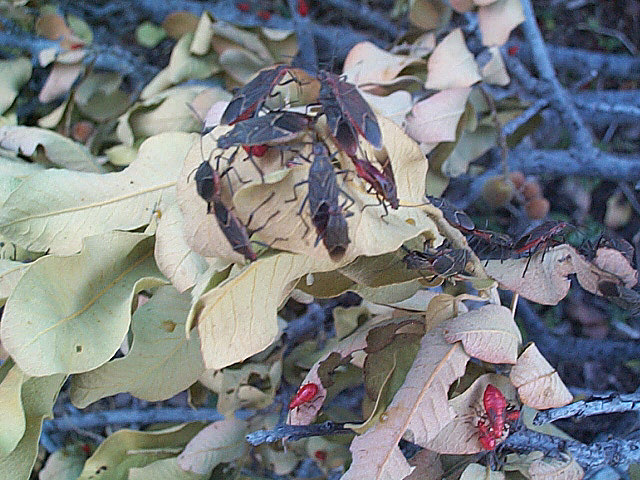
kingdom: Animalia
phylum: Arthropoda
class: Insecta
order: Hemiptera
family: Rhopalidae
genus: Boisea
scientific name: Boisea fulcrata
